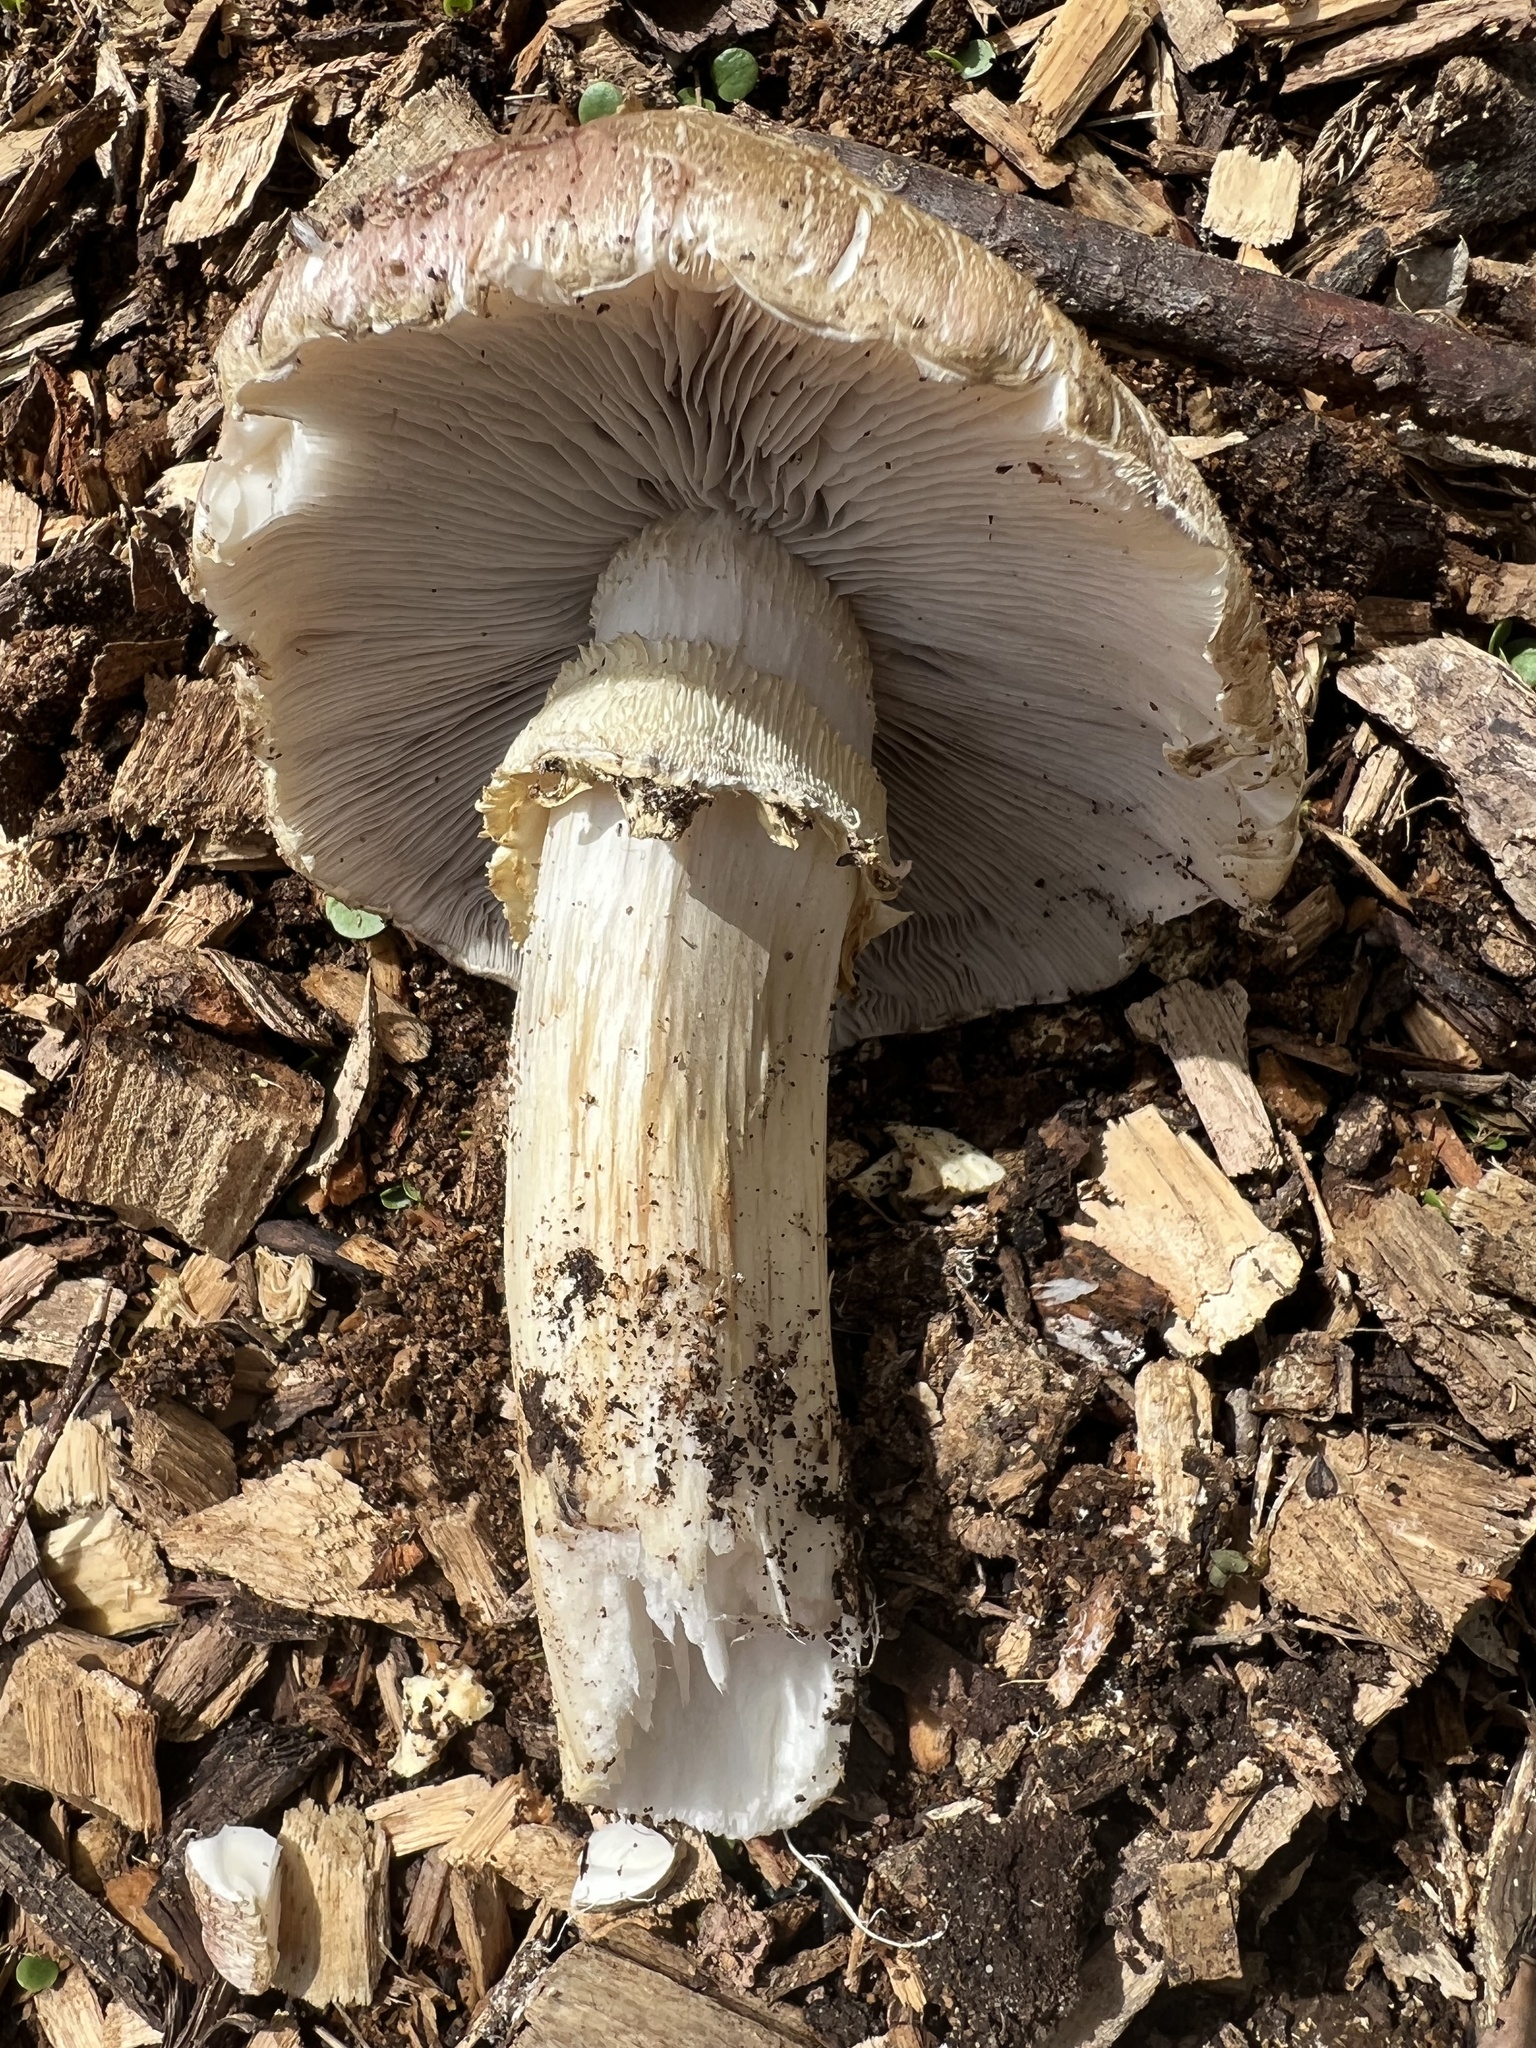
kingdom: Fungi
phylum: Basidiomycota
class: Agaricomycetes
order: Agaricales
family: Strophariaceae
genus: Stropharia
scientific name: Stropharia rugosoannulata
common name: Wine roundhead
